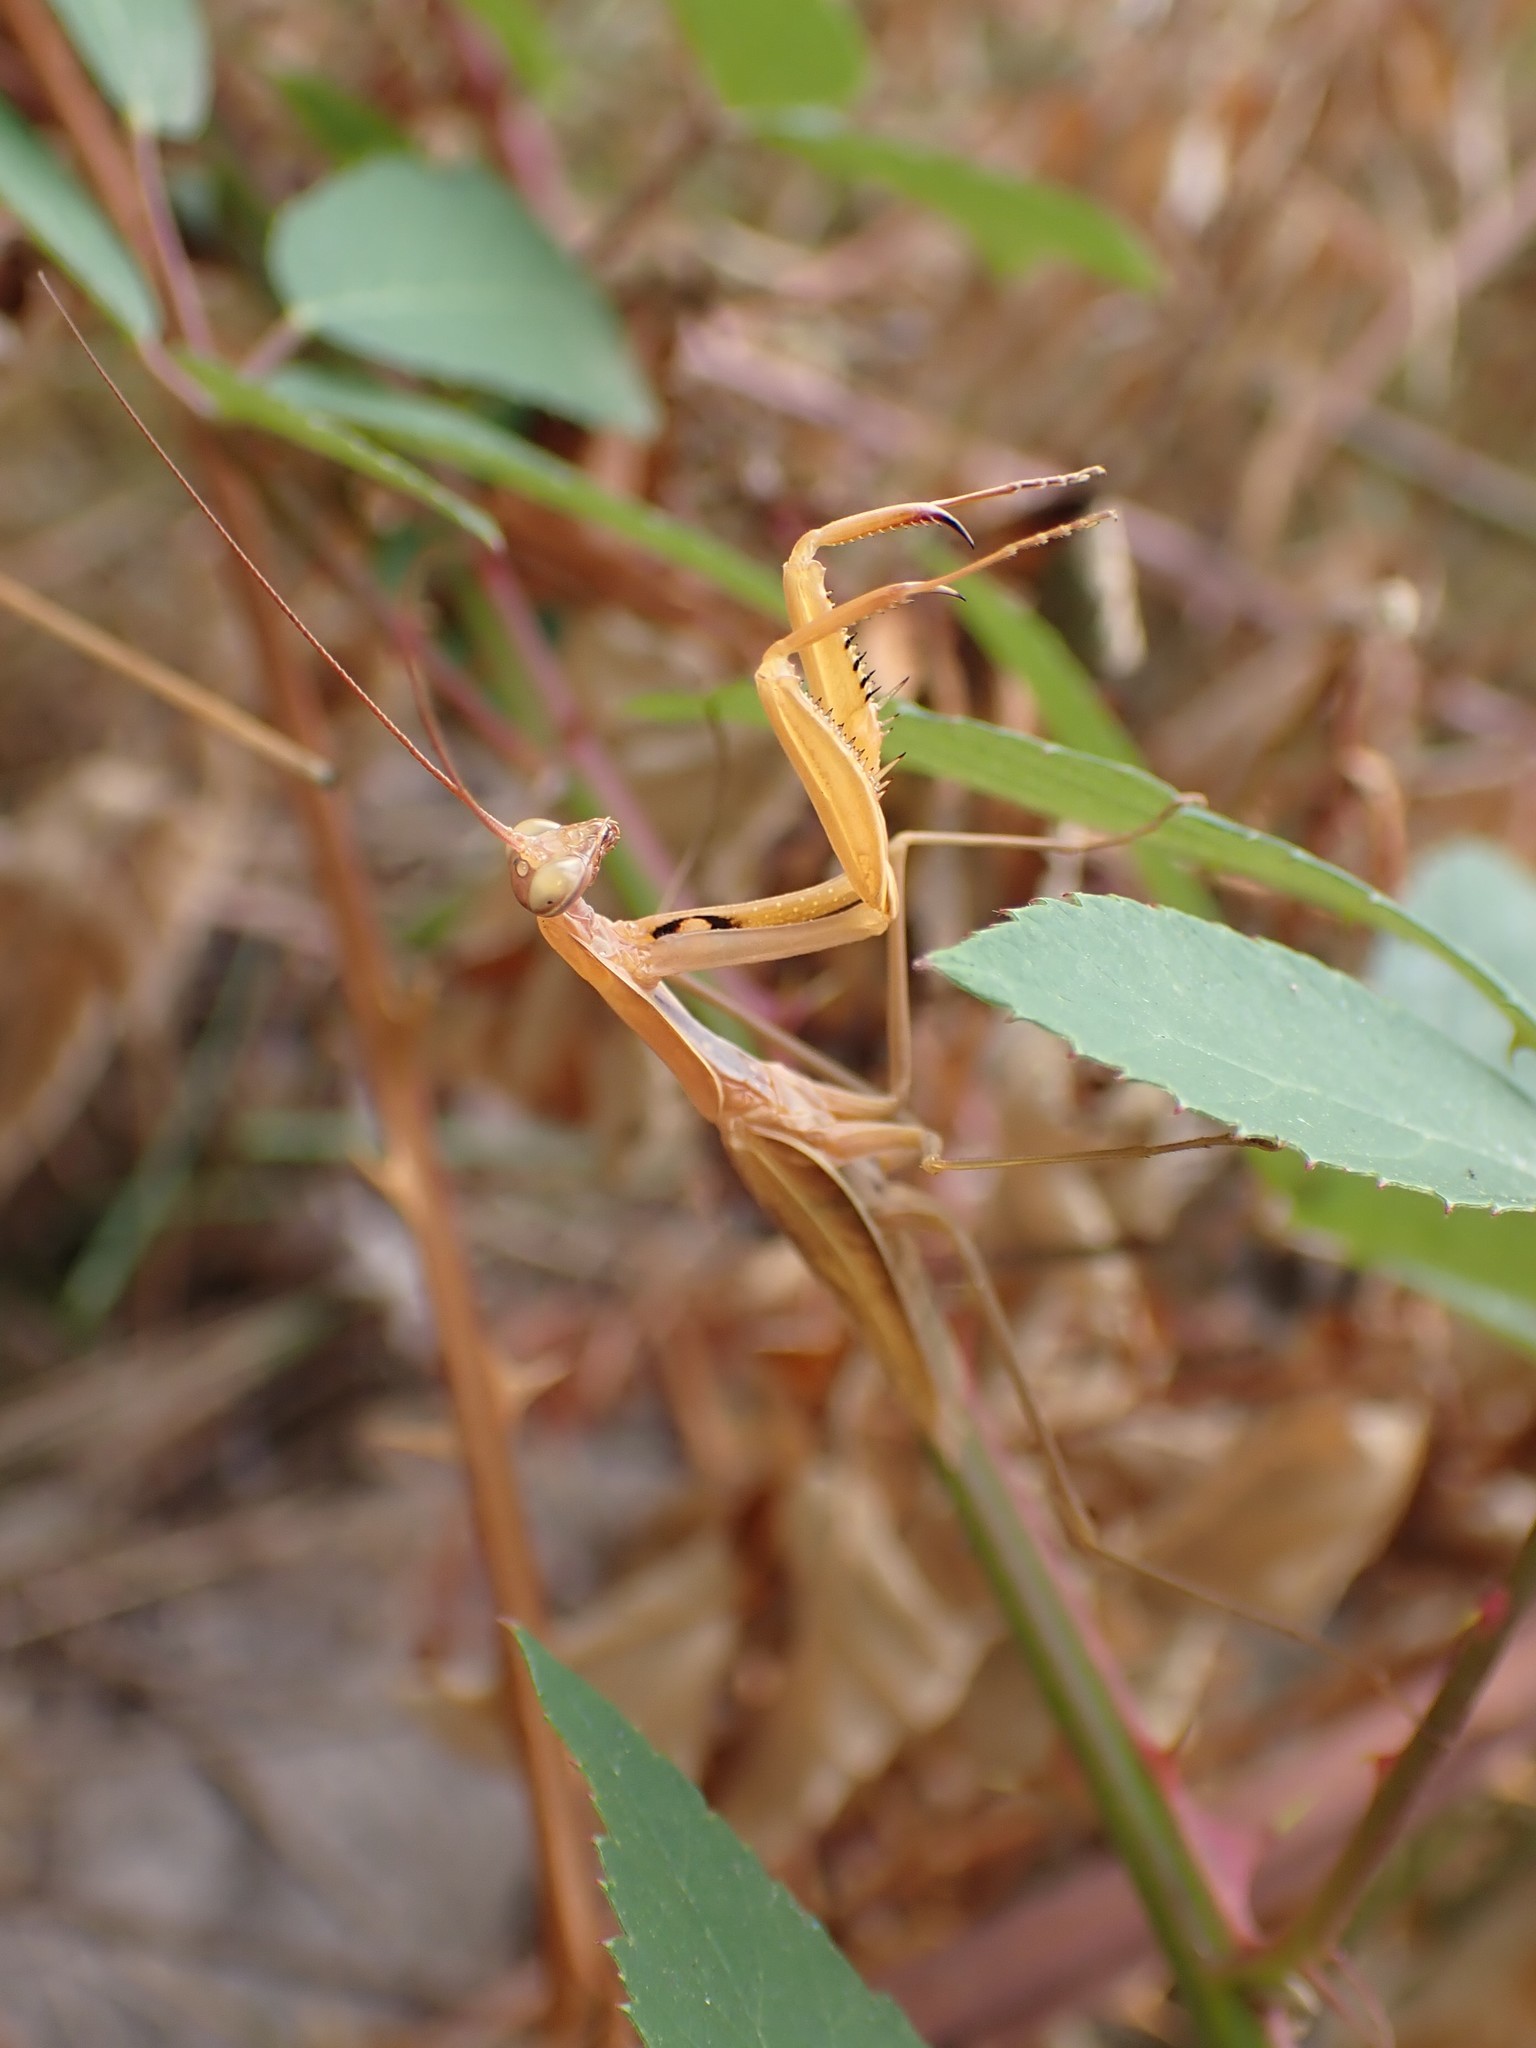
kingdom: Animalia
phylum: Arthropoda
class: Insecta
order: Mantodea
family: Mantidae
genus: Mantis
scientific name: Mantis religiosa
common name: Praying mantis
